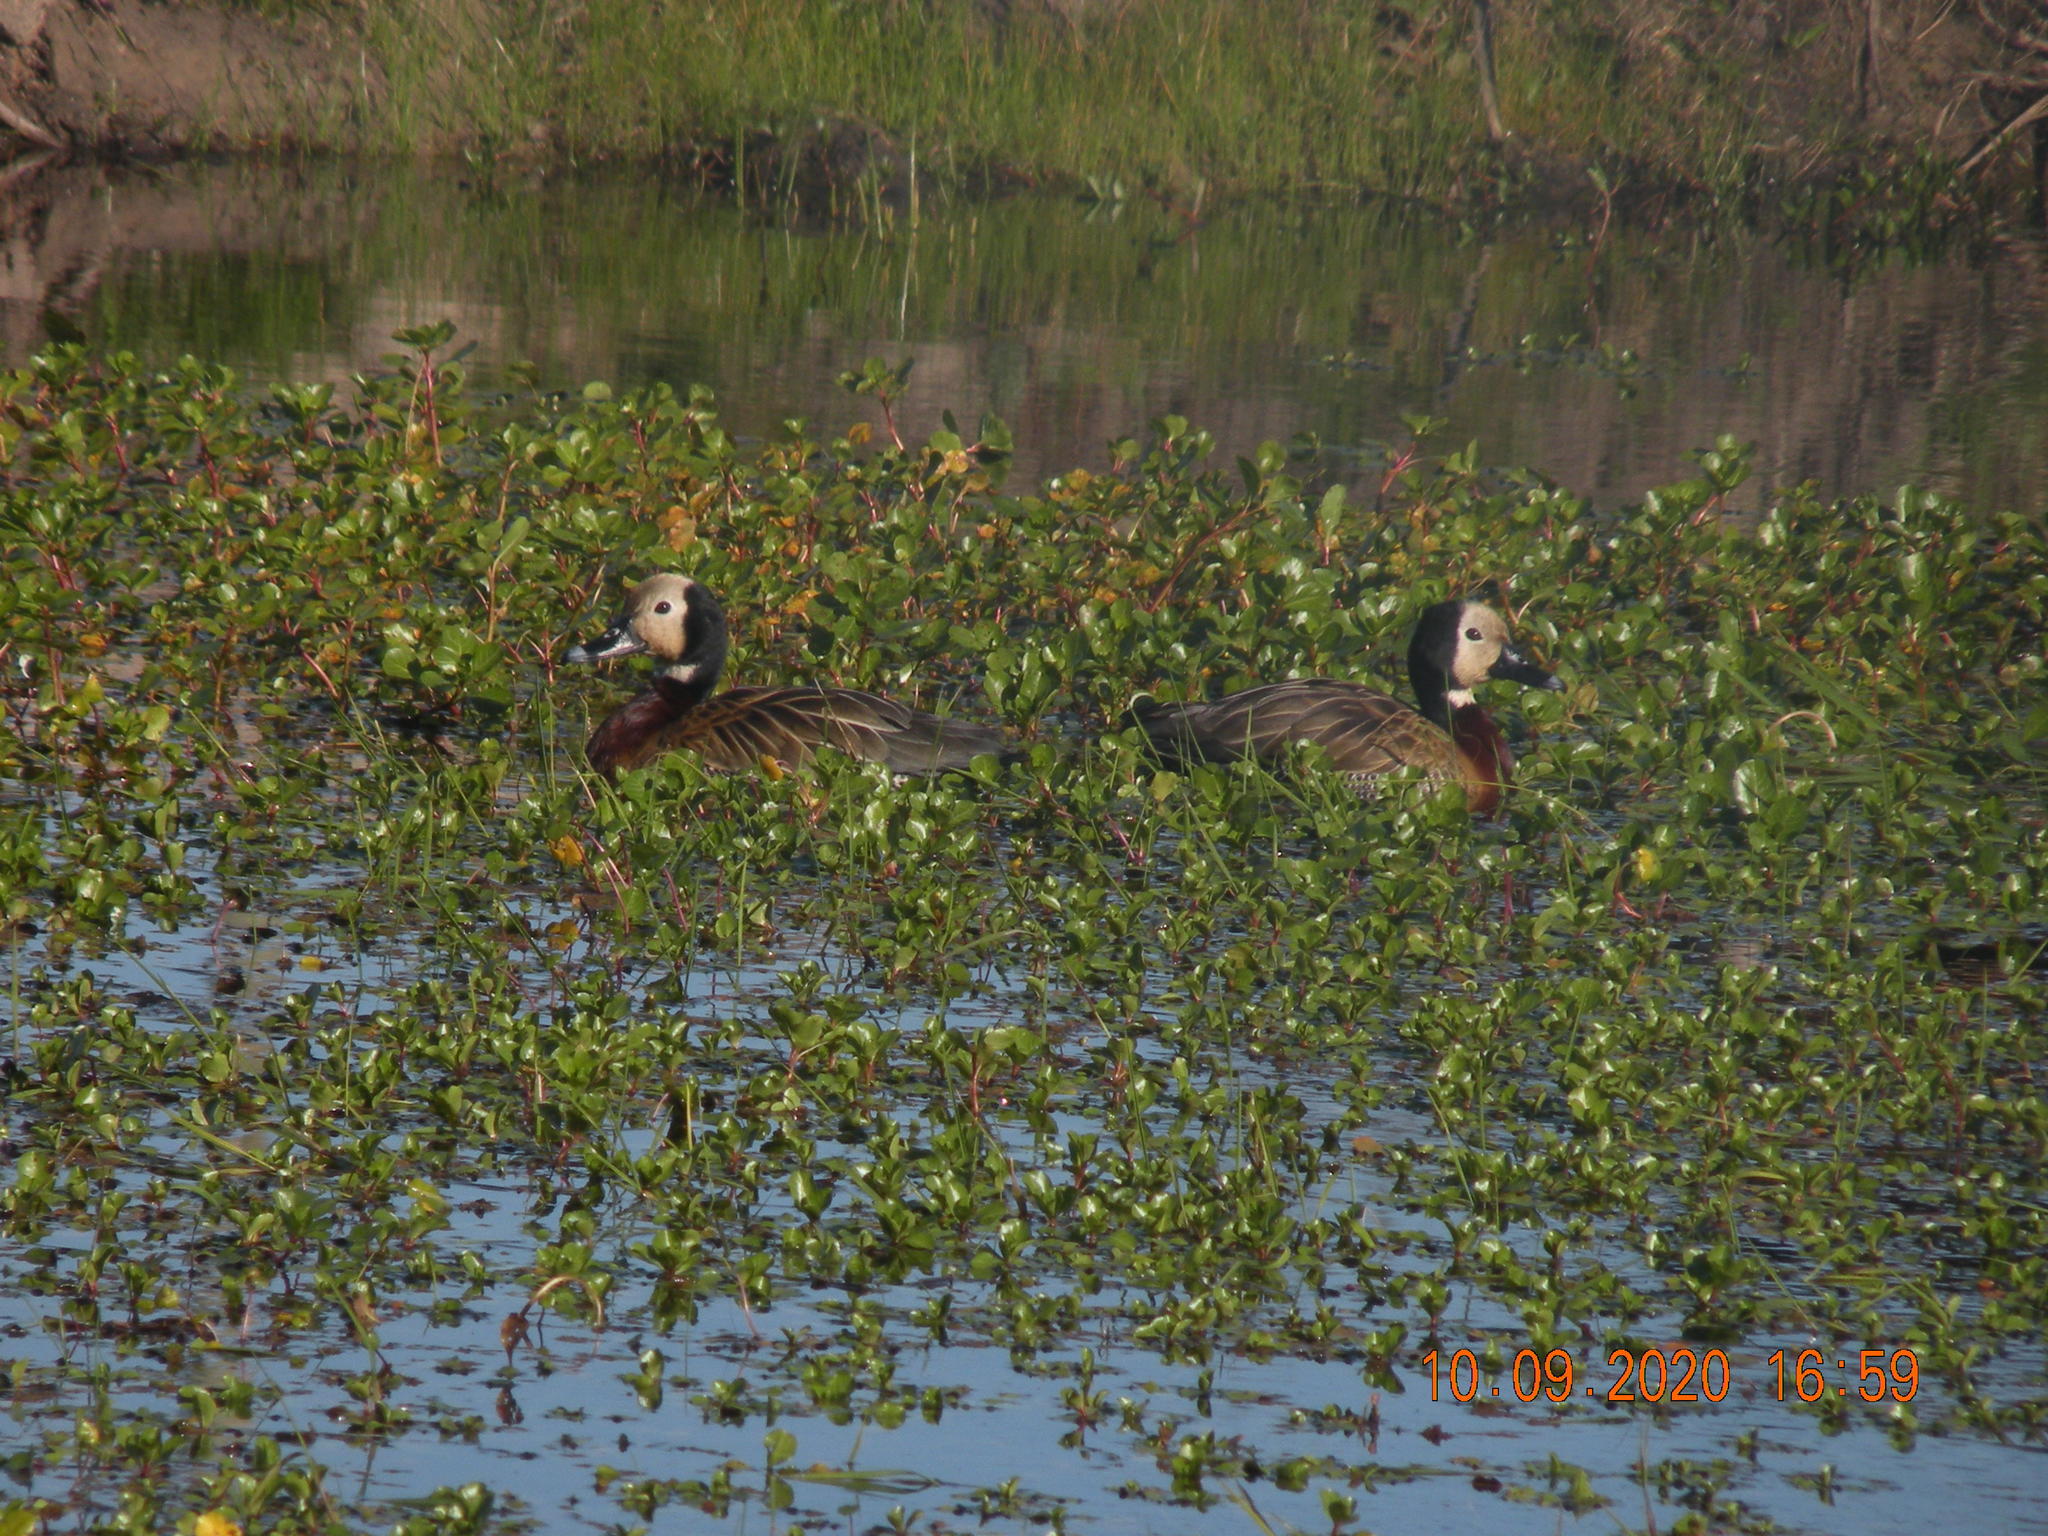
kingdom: Animalia
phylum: Chordata
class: Aves
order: Anseriformes
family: Anatidae
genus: Dendrocygna
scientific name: Dendrocygna viduata
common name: White-faced whistling duck
